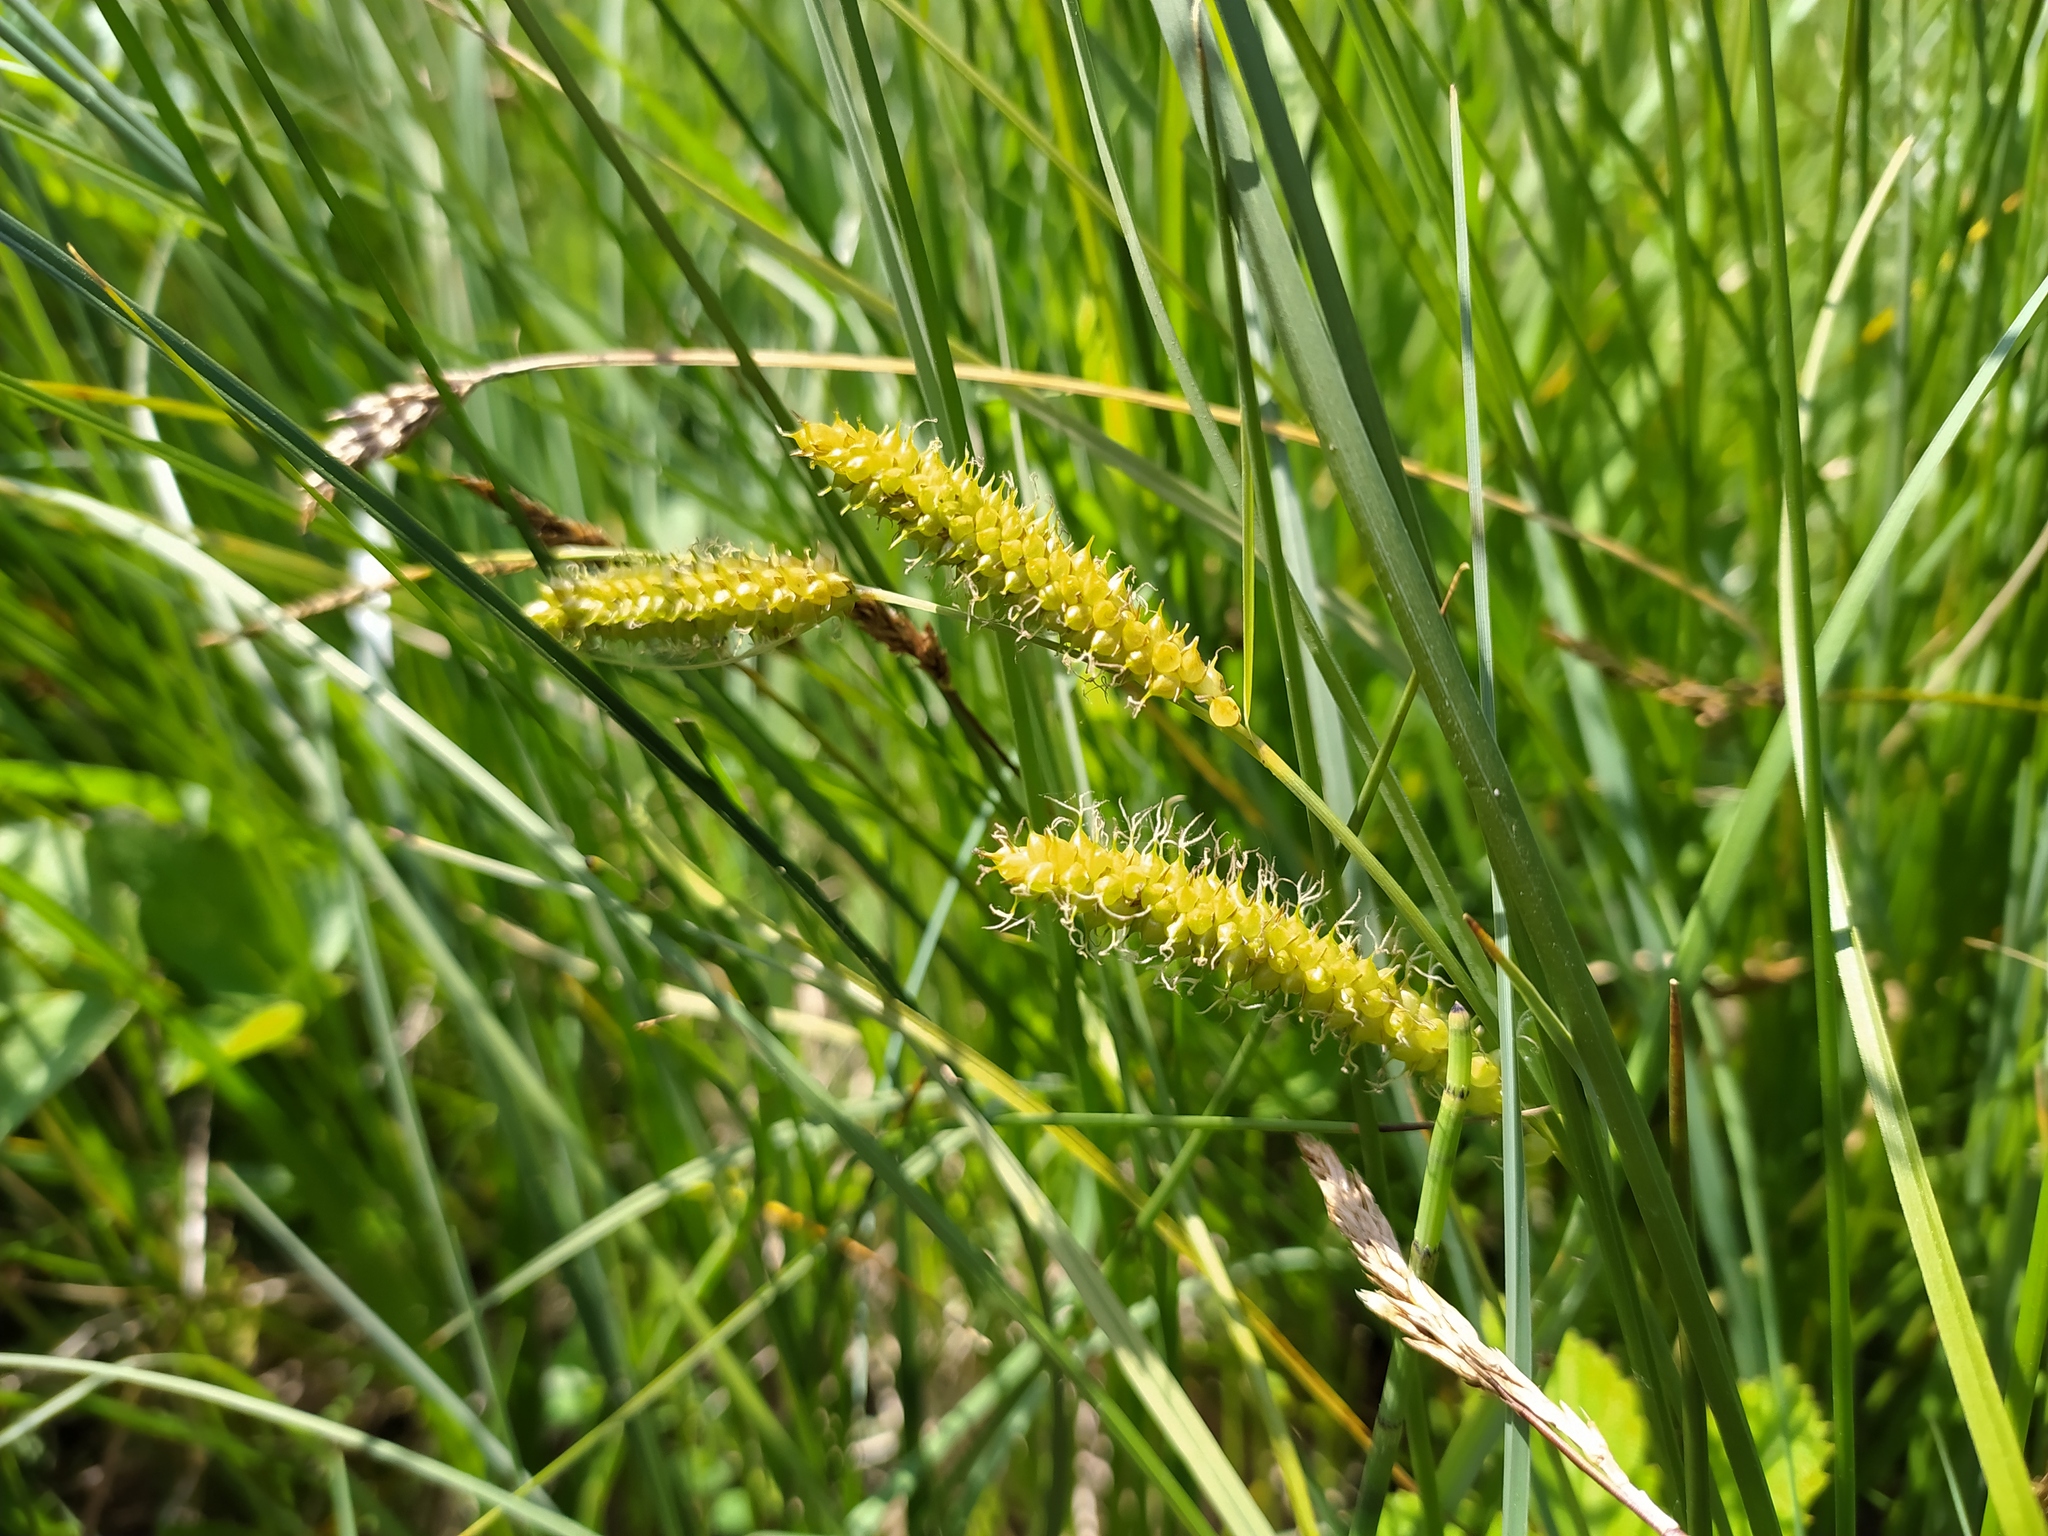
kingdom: Plantae
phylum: Tracheophyta
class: Liliopsida
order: Poales
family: Cyperaceae
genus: Carex
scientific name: Carex rostrata
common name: Bottle sedge
